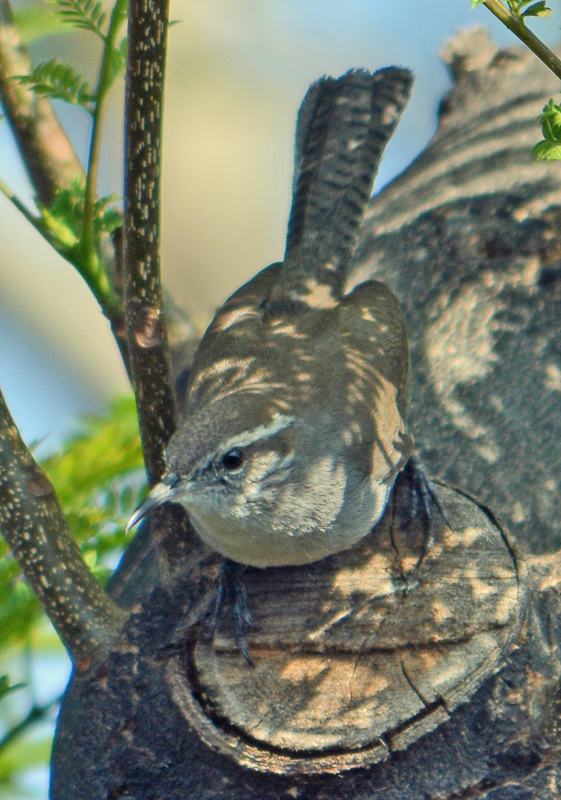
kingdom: Animalia
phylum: Chordata
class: Aves
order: Passeriformes
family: Troglodytidae
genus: Thryomanes
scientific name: Thryomanes bewickii
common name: Bewick's wren
